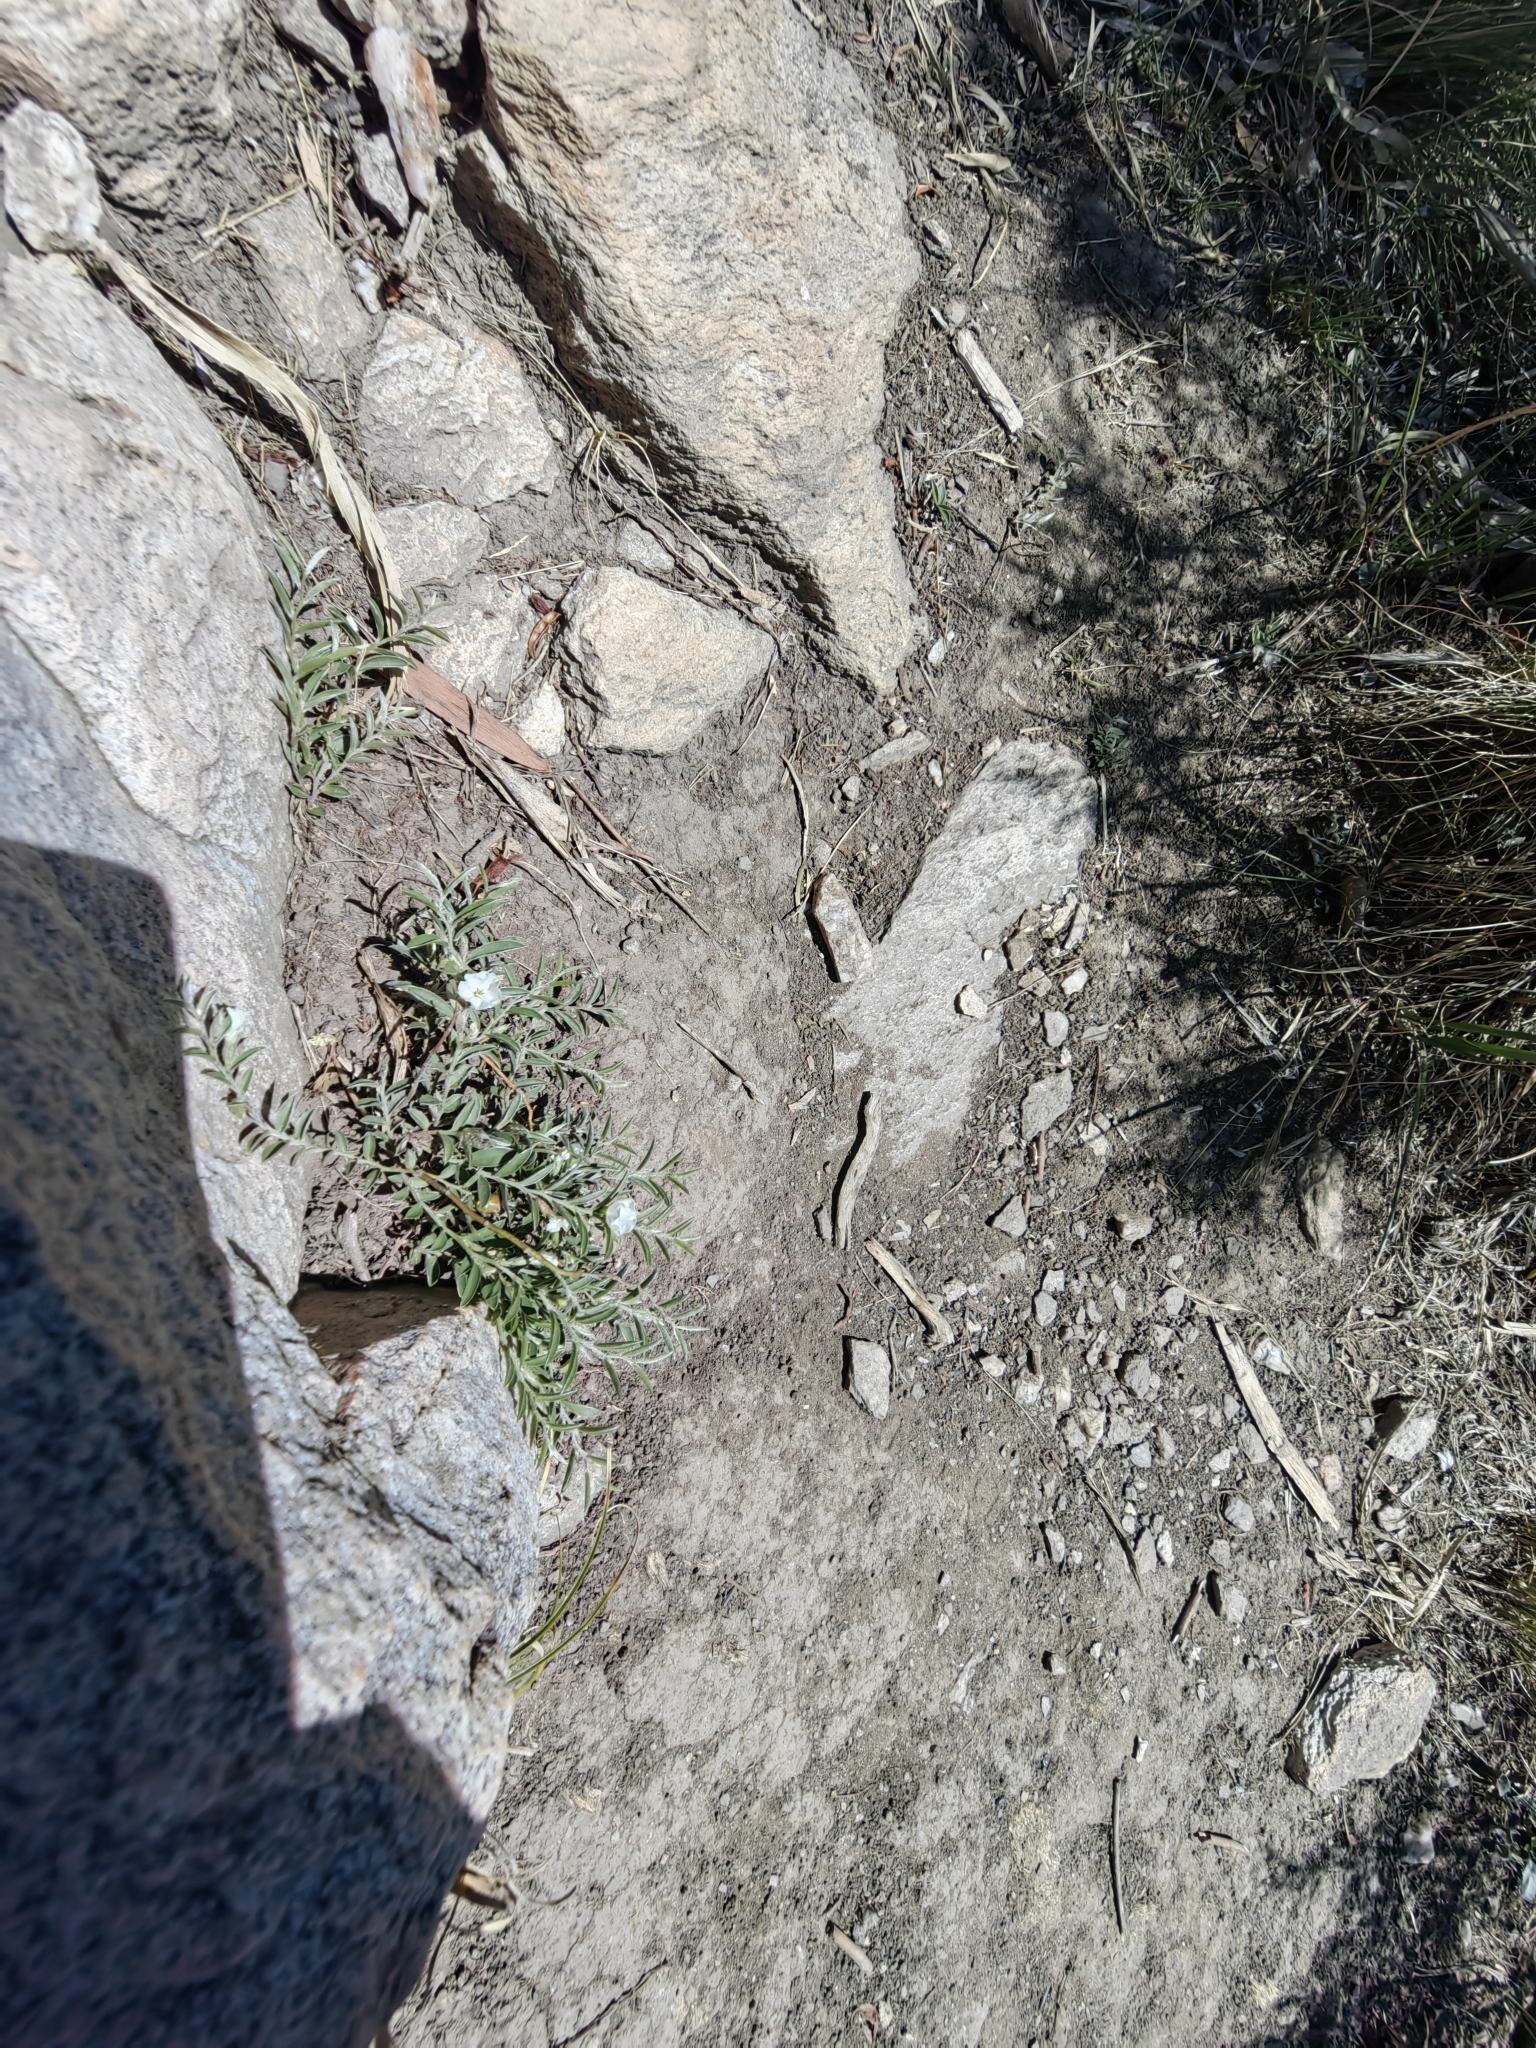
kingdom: Plantae
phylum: Tracheophyta
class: Magnoliopsida
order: Solanales
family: Convolvulaceae
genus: Evolvulus
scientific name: Evolvulus sericeus
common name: Blue dots
